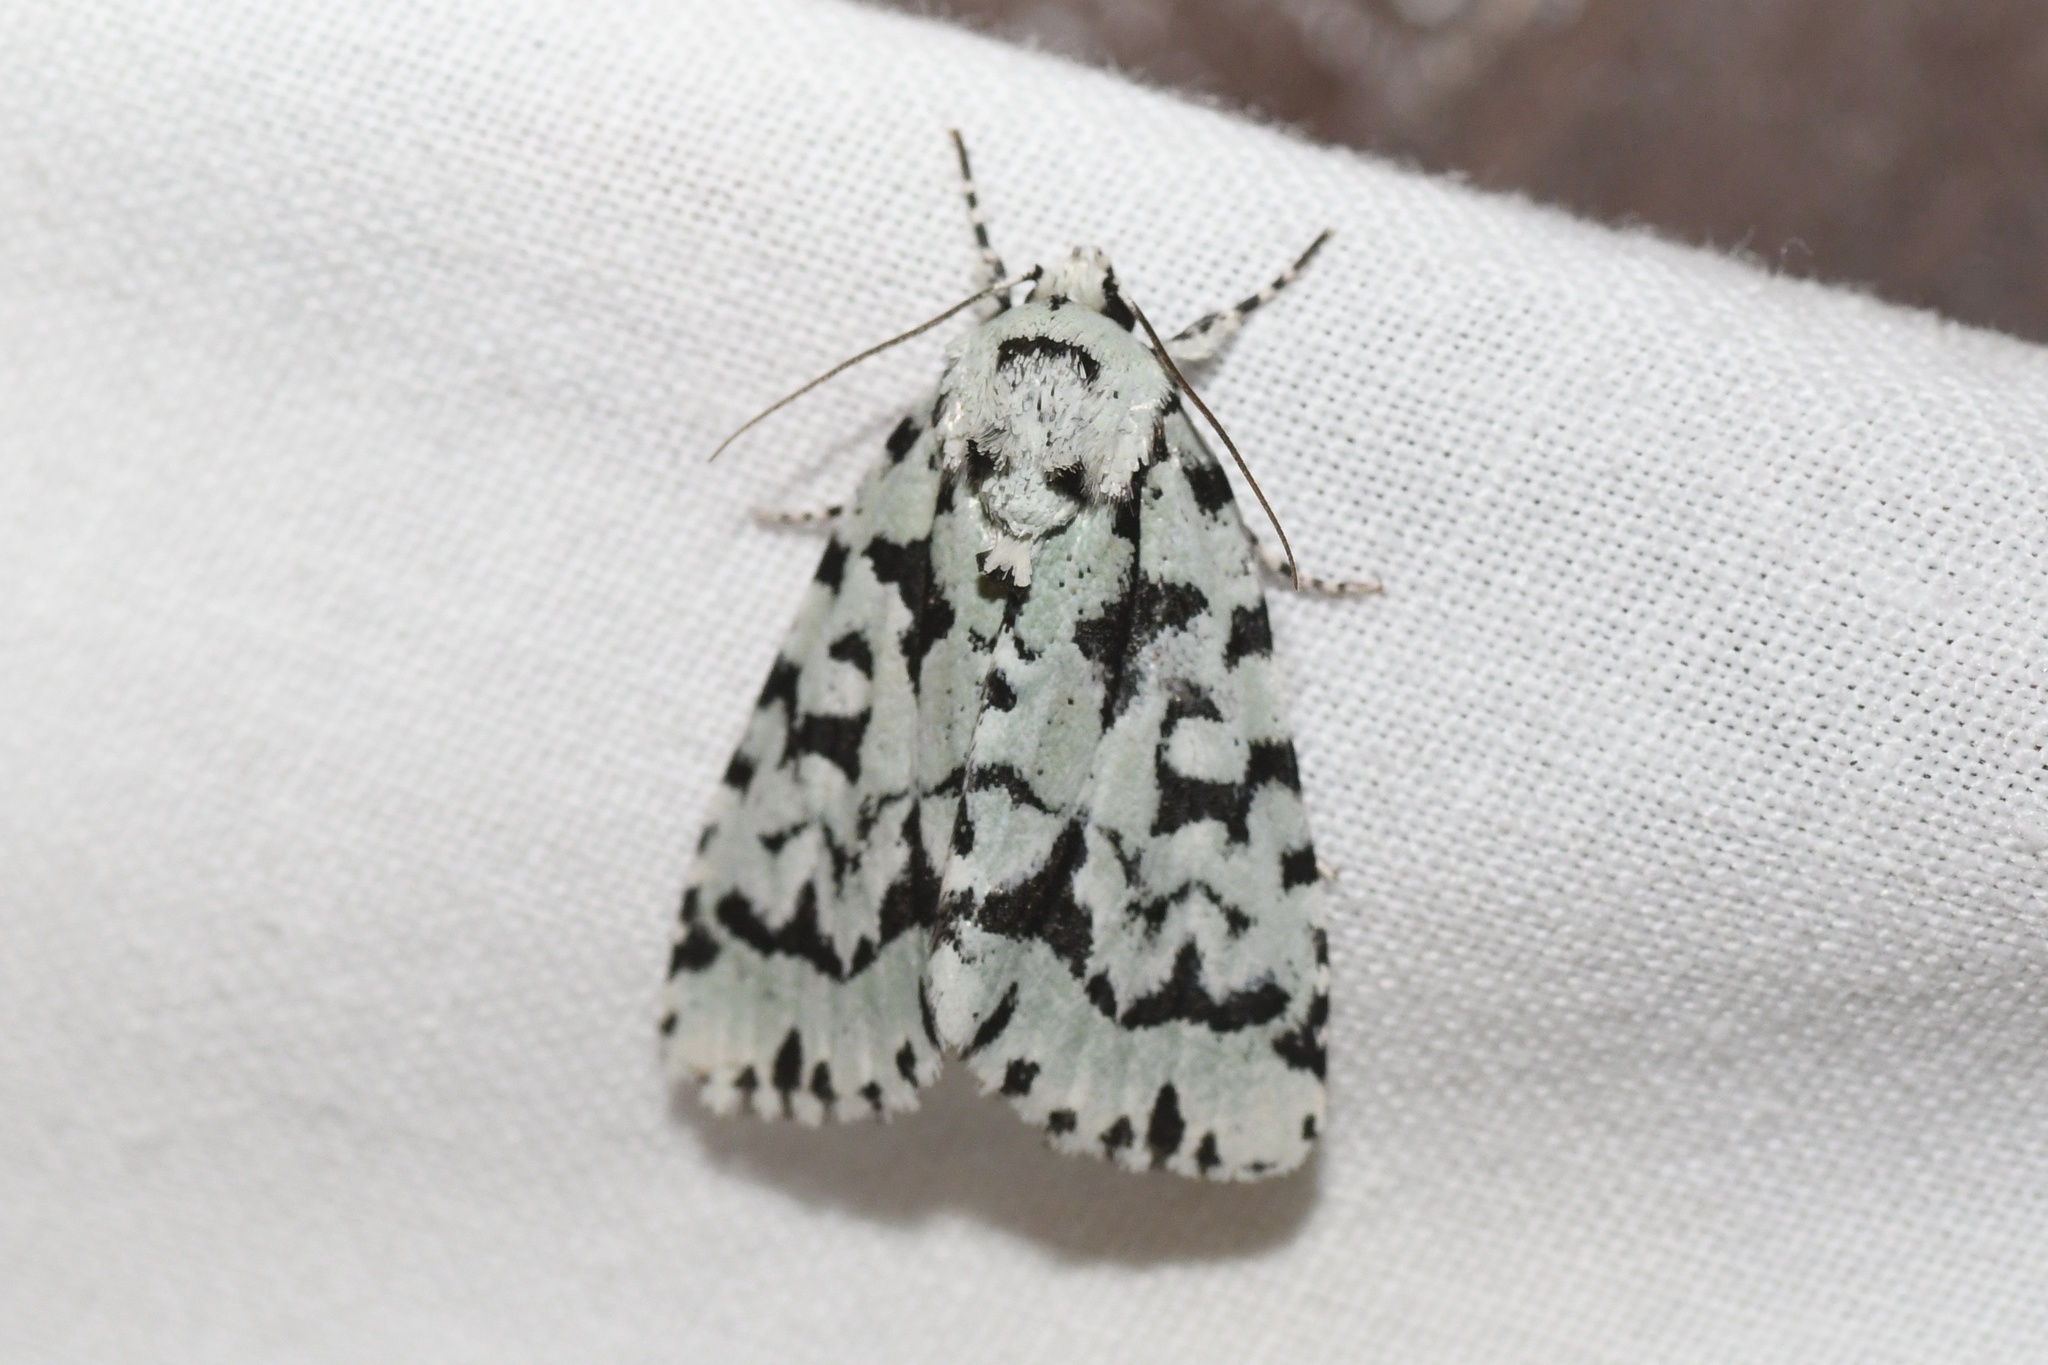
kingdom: Animalia
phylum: Arthropoda
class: Insecta
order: Lepidoptera
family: Noctuidae
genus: Acronicta
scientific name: Acronicta fallax
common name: Green marvel
